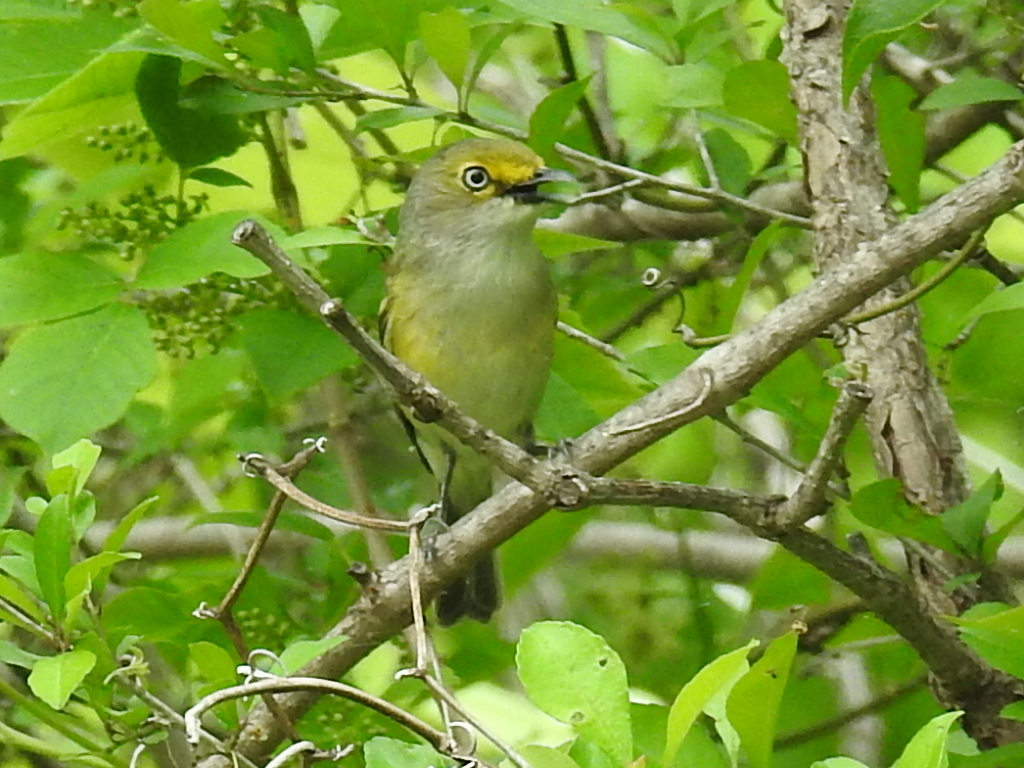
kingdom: Animalia
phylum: Chordata
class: Aves
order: Passeriformes
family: Vireonidae
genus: Vireo
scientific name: Vireo griseus
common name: White-eyed vireo
